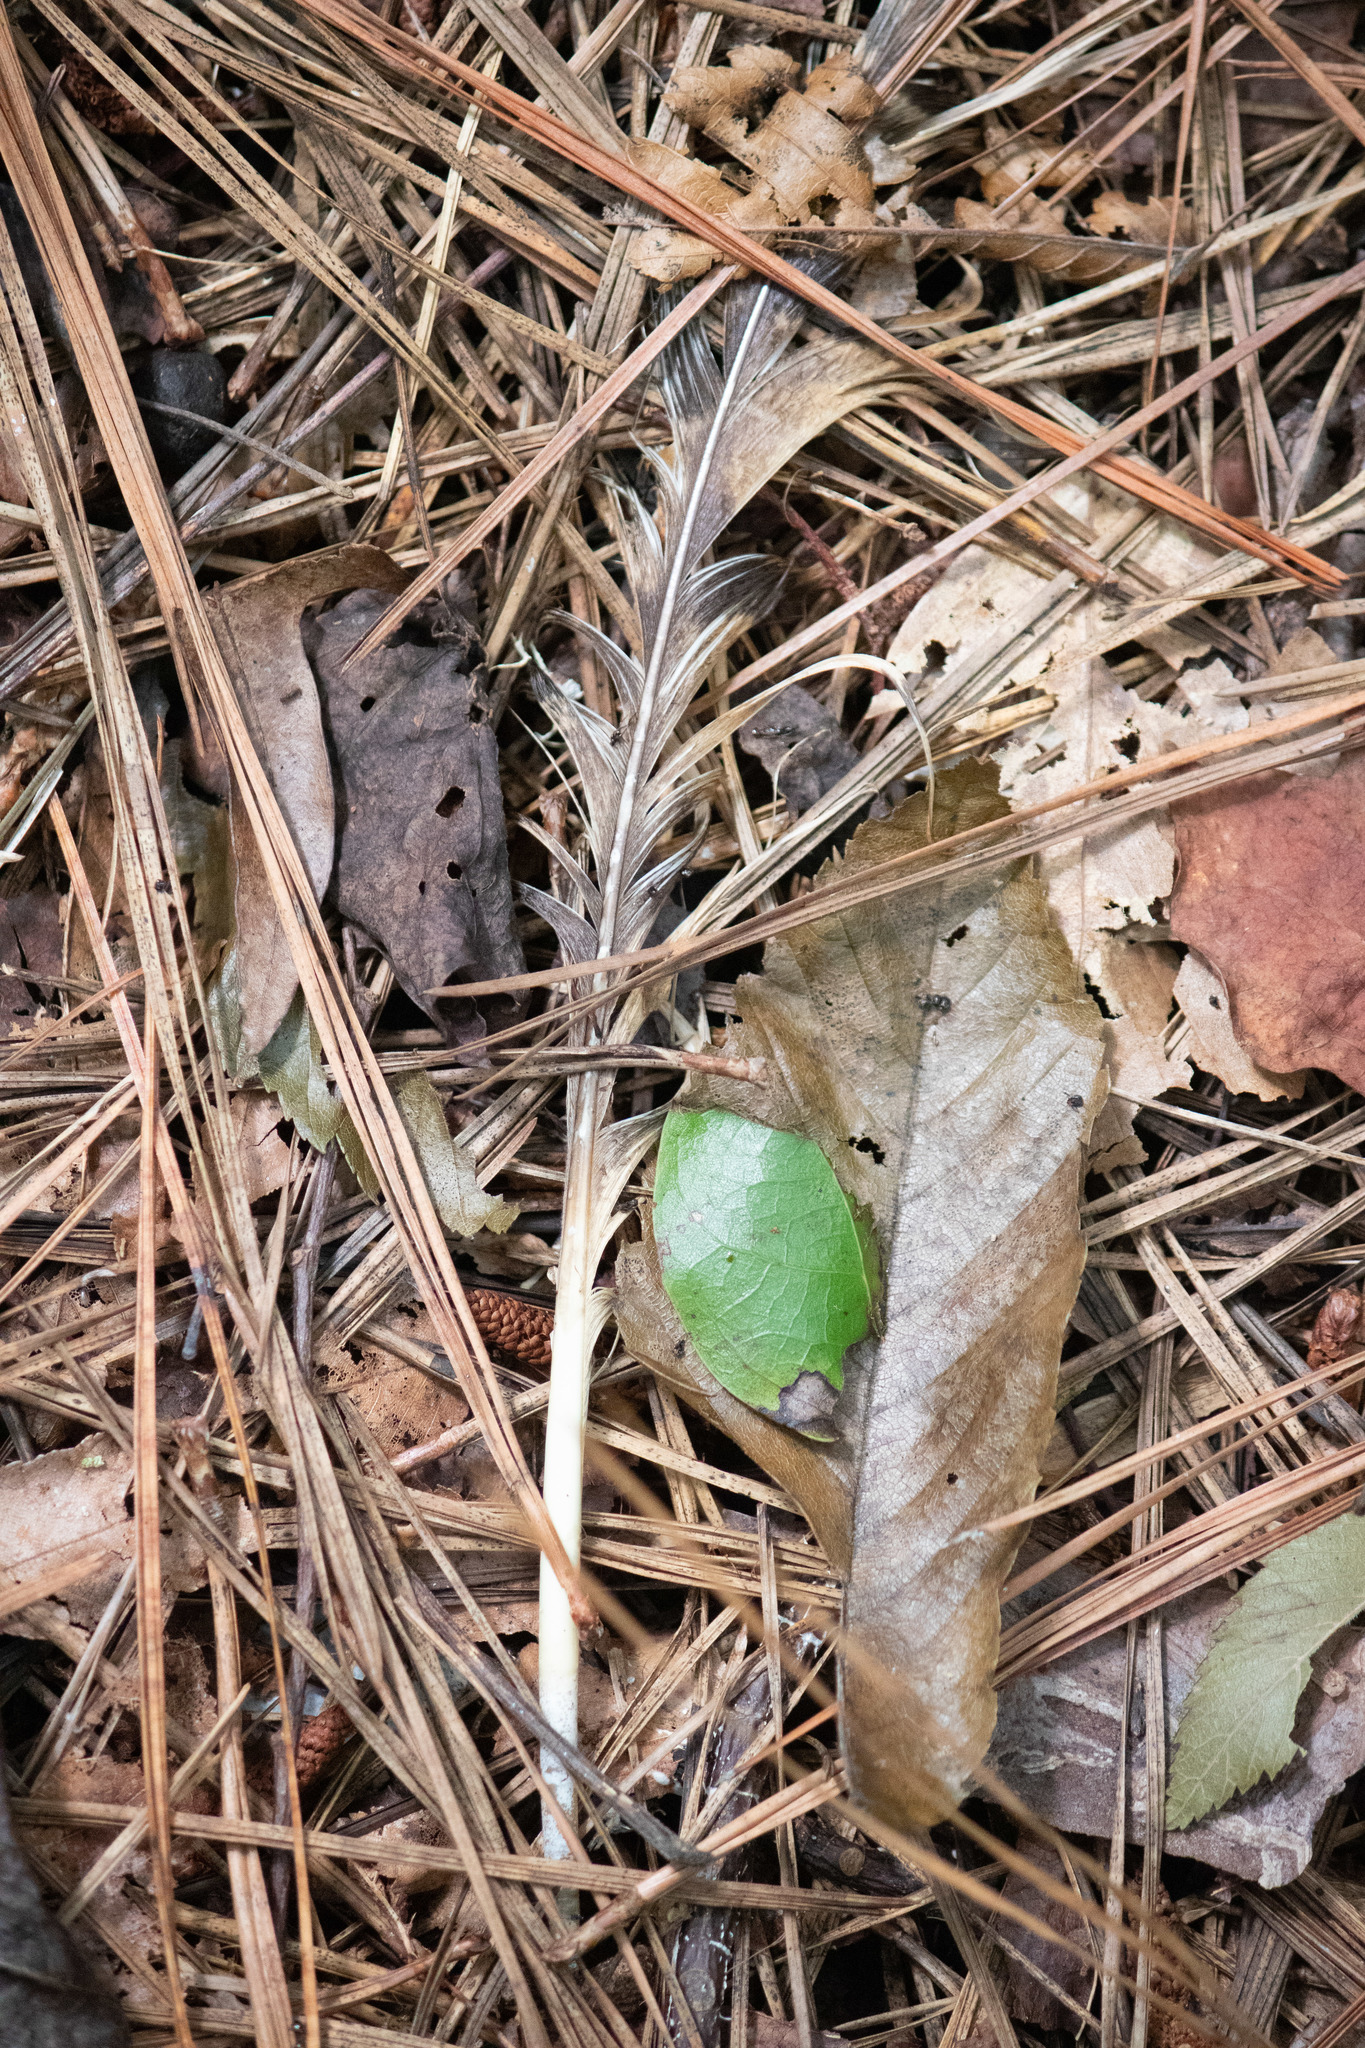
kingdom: Animalia
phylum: Chordata
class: Aves
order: Strigiformes
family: Strigidae
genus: Bubo
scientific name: Bubo virginianus
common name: Great horned owl
